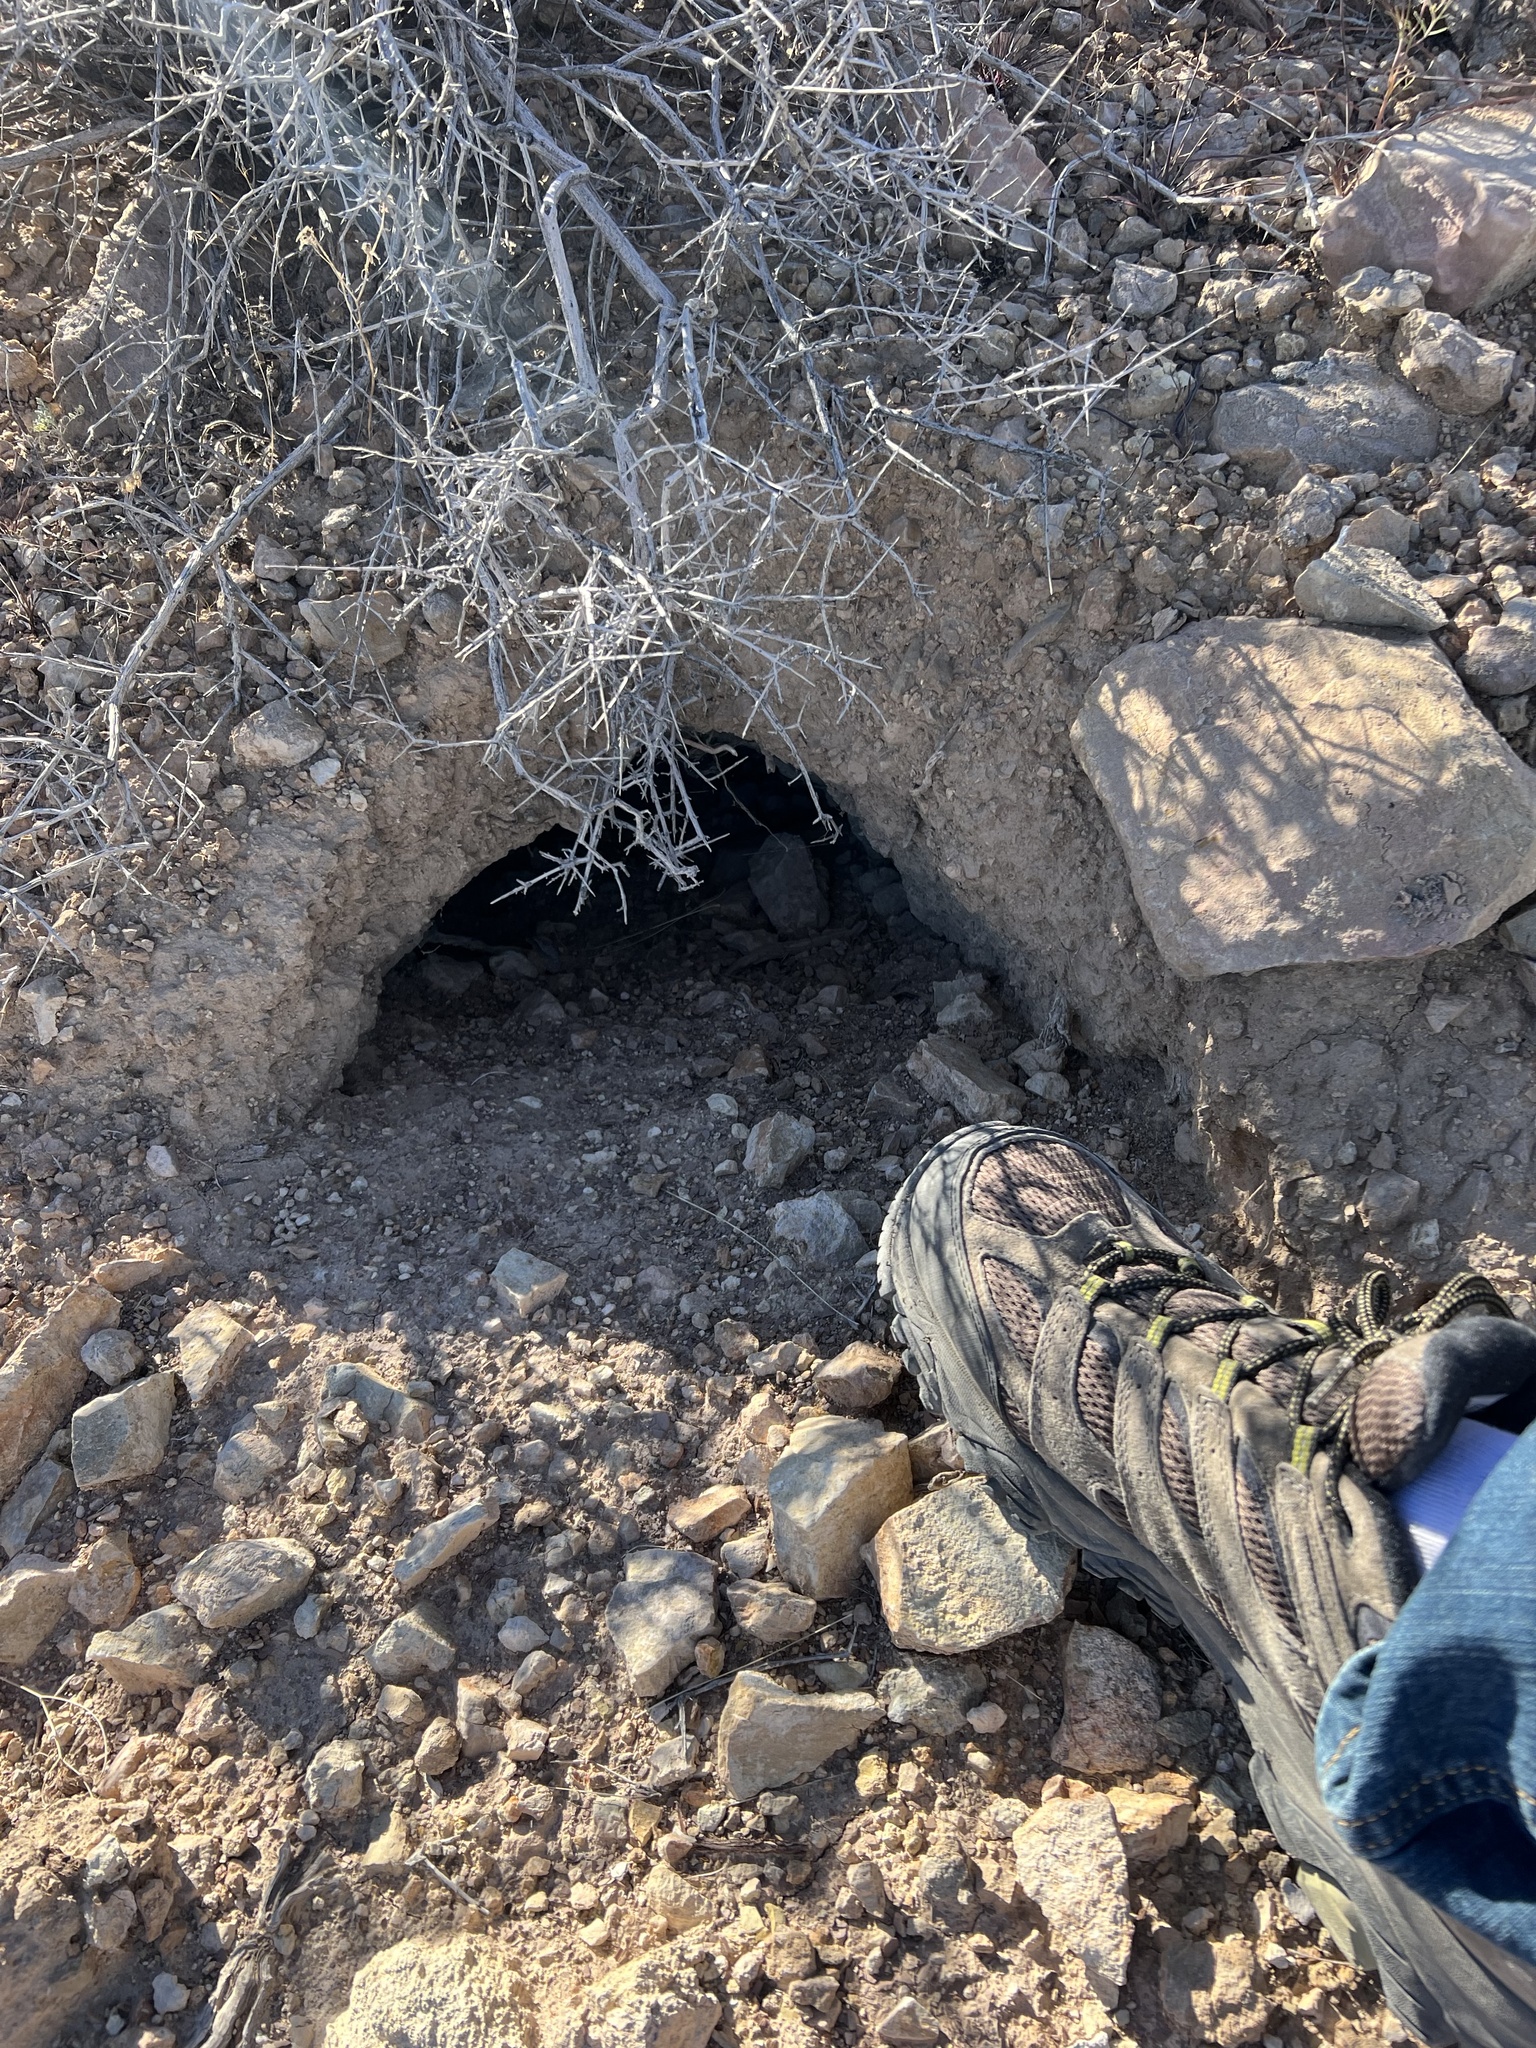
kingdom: Animalia
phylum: Chordata
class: Testudines
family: Testudinidae
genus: Gopherus
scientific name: Gopherus agassizii
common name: Mojave desert tortoise
